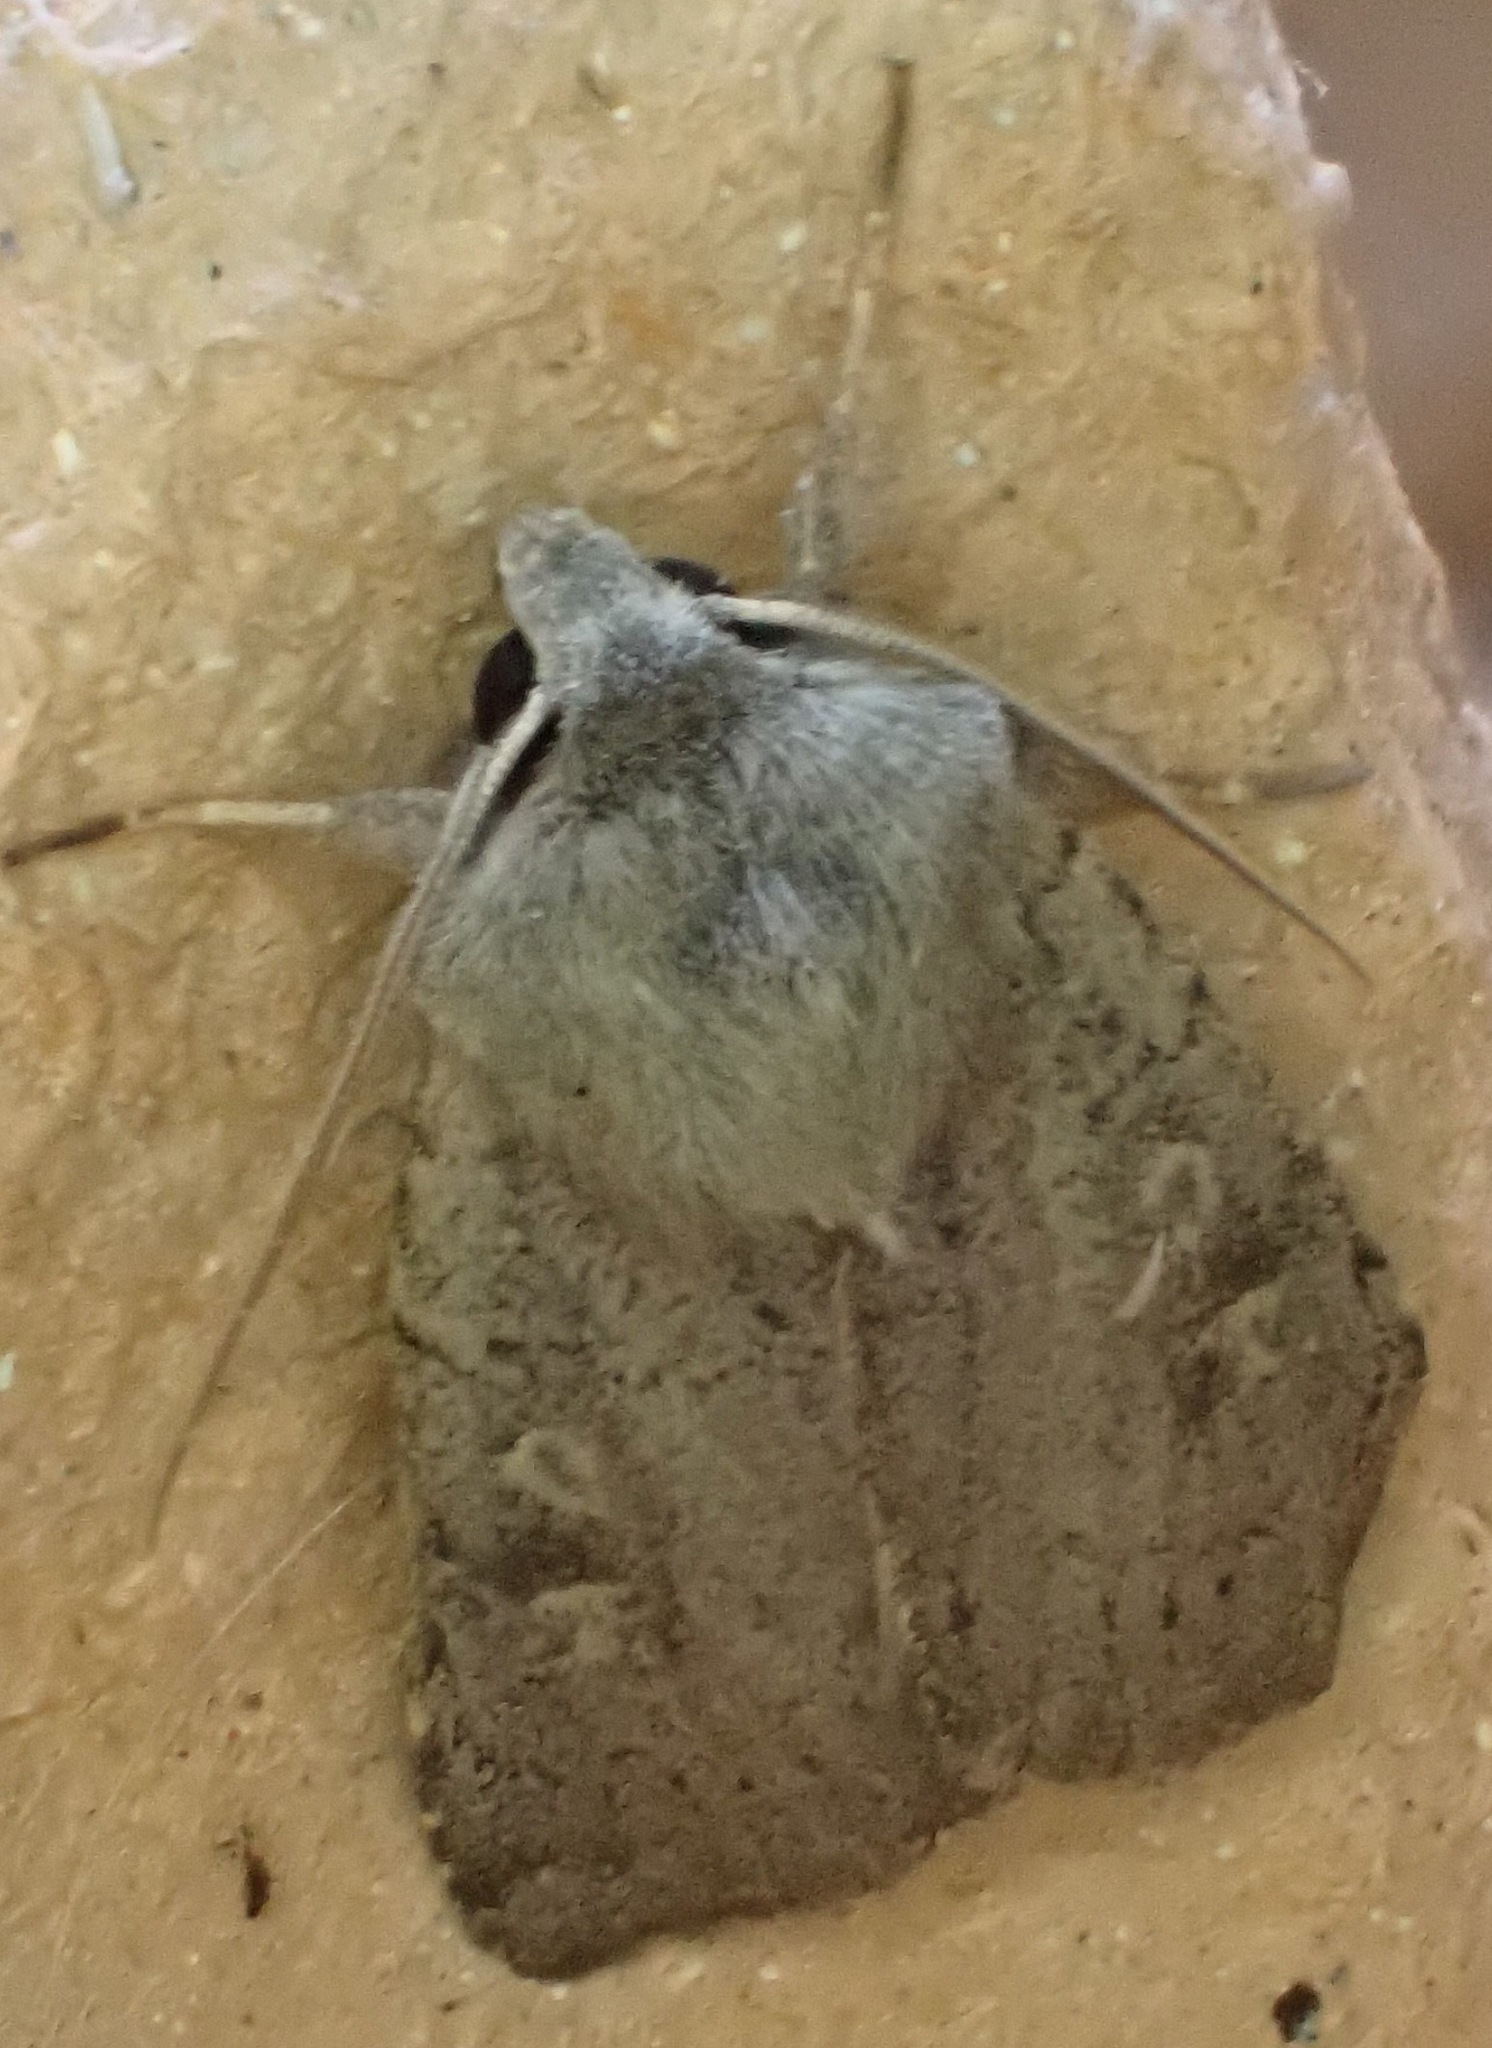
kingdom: Animalia
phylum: Arthropoda
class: Insecta
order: Lepidoptera
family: Noctuidae
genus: Xestia
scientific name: Xestia xanthographa
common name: Square-spot rustic
